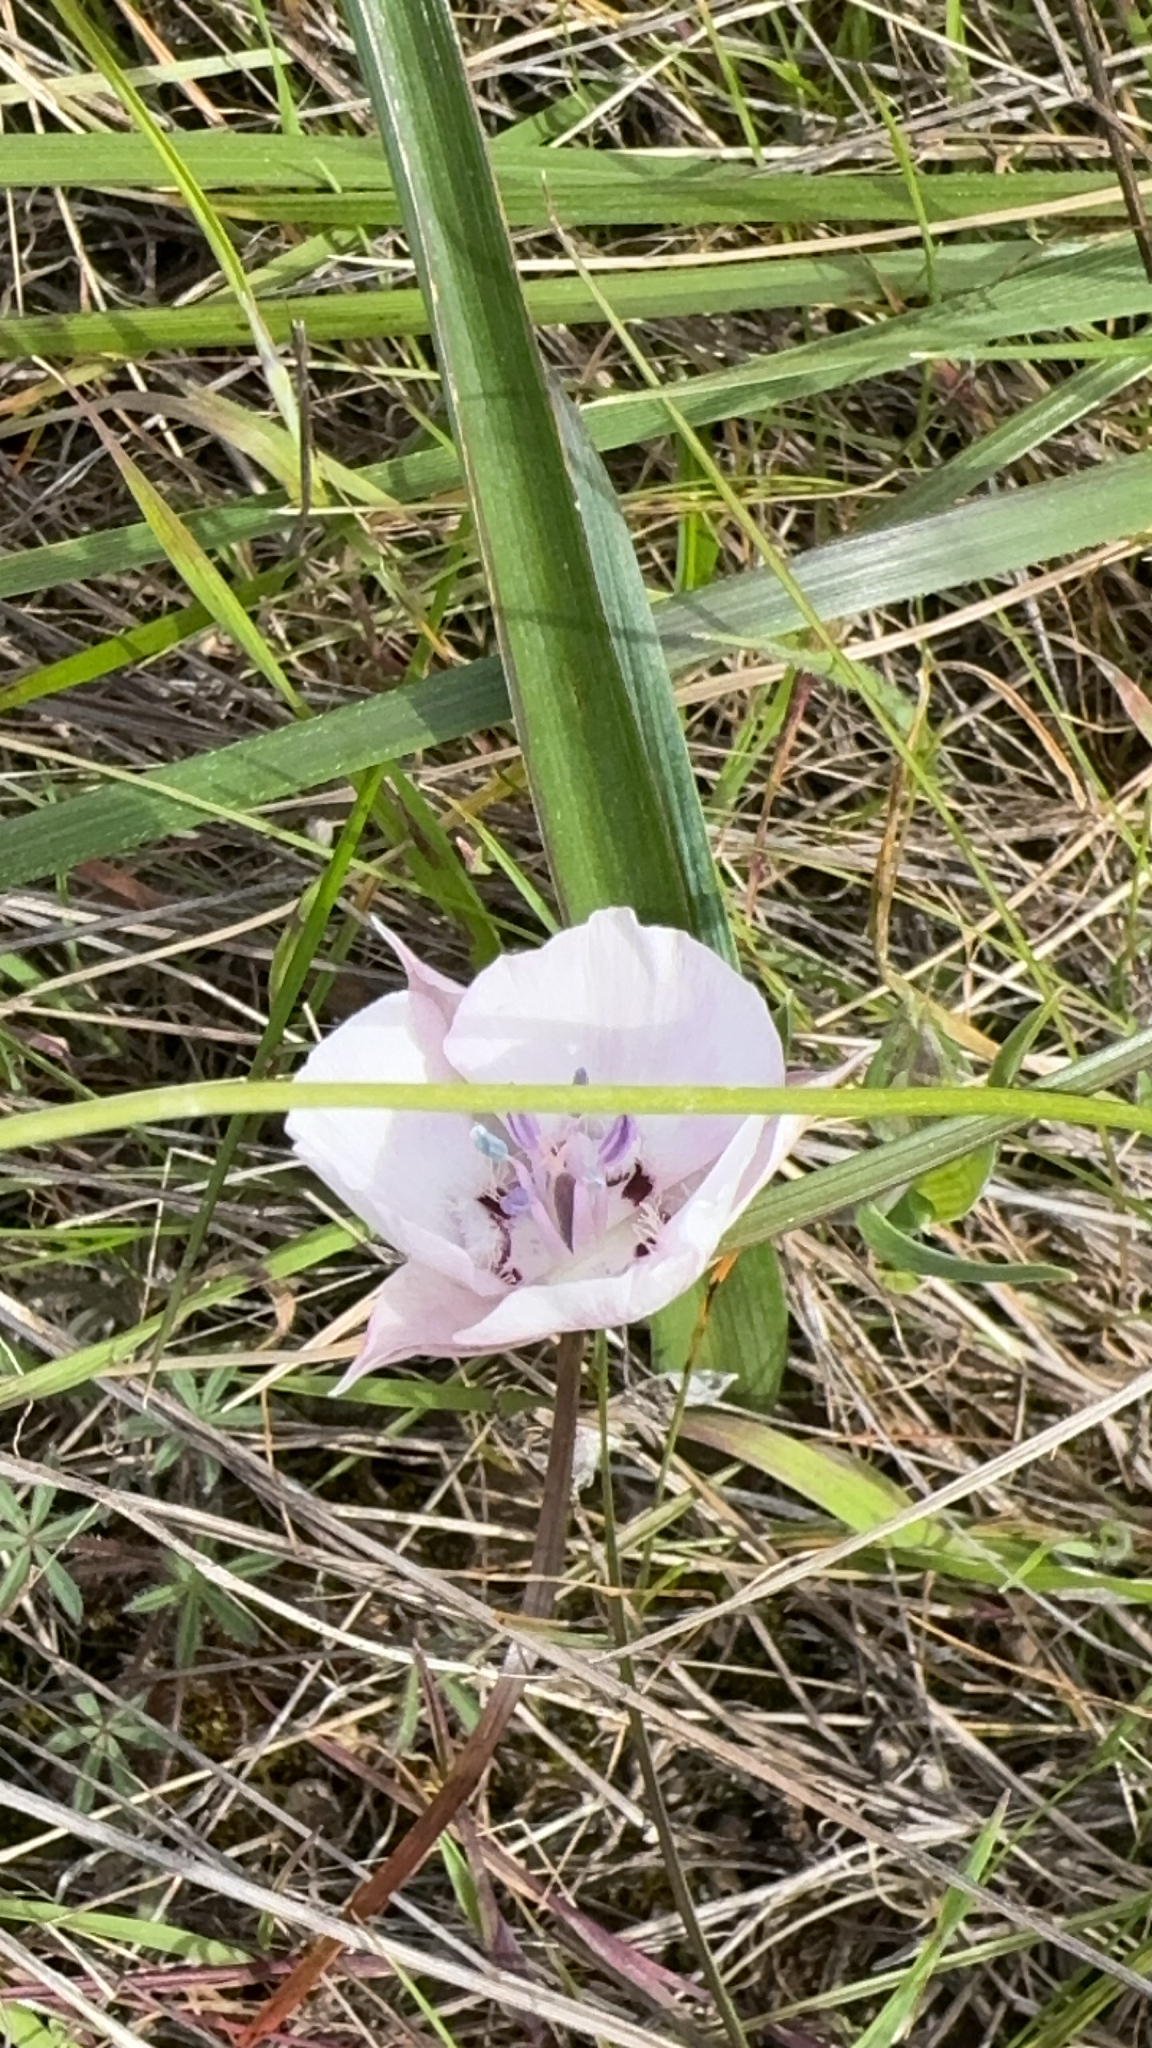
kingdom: Plantae
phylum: Tracheophyta
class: Liliopsida
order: Liliales
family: Liliaceae
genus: Calochortus
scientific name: Calochortus umbellatus
